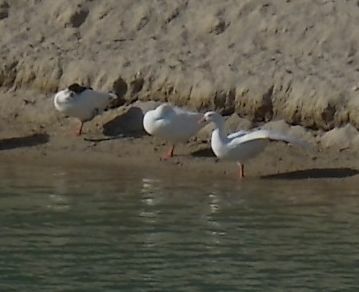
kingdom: Animalia
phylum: Chordata
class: Aves
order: Anseriformes
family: Anatidae
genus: Anser
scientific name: Anser anser
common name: Greylag goose
